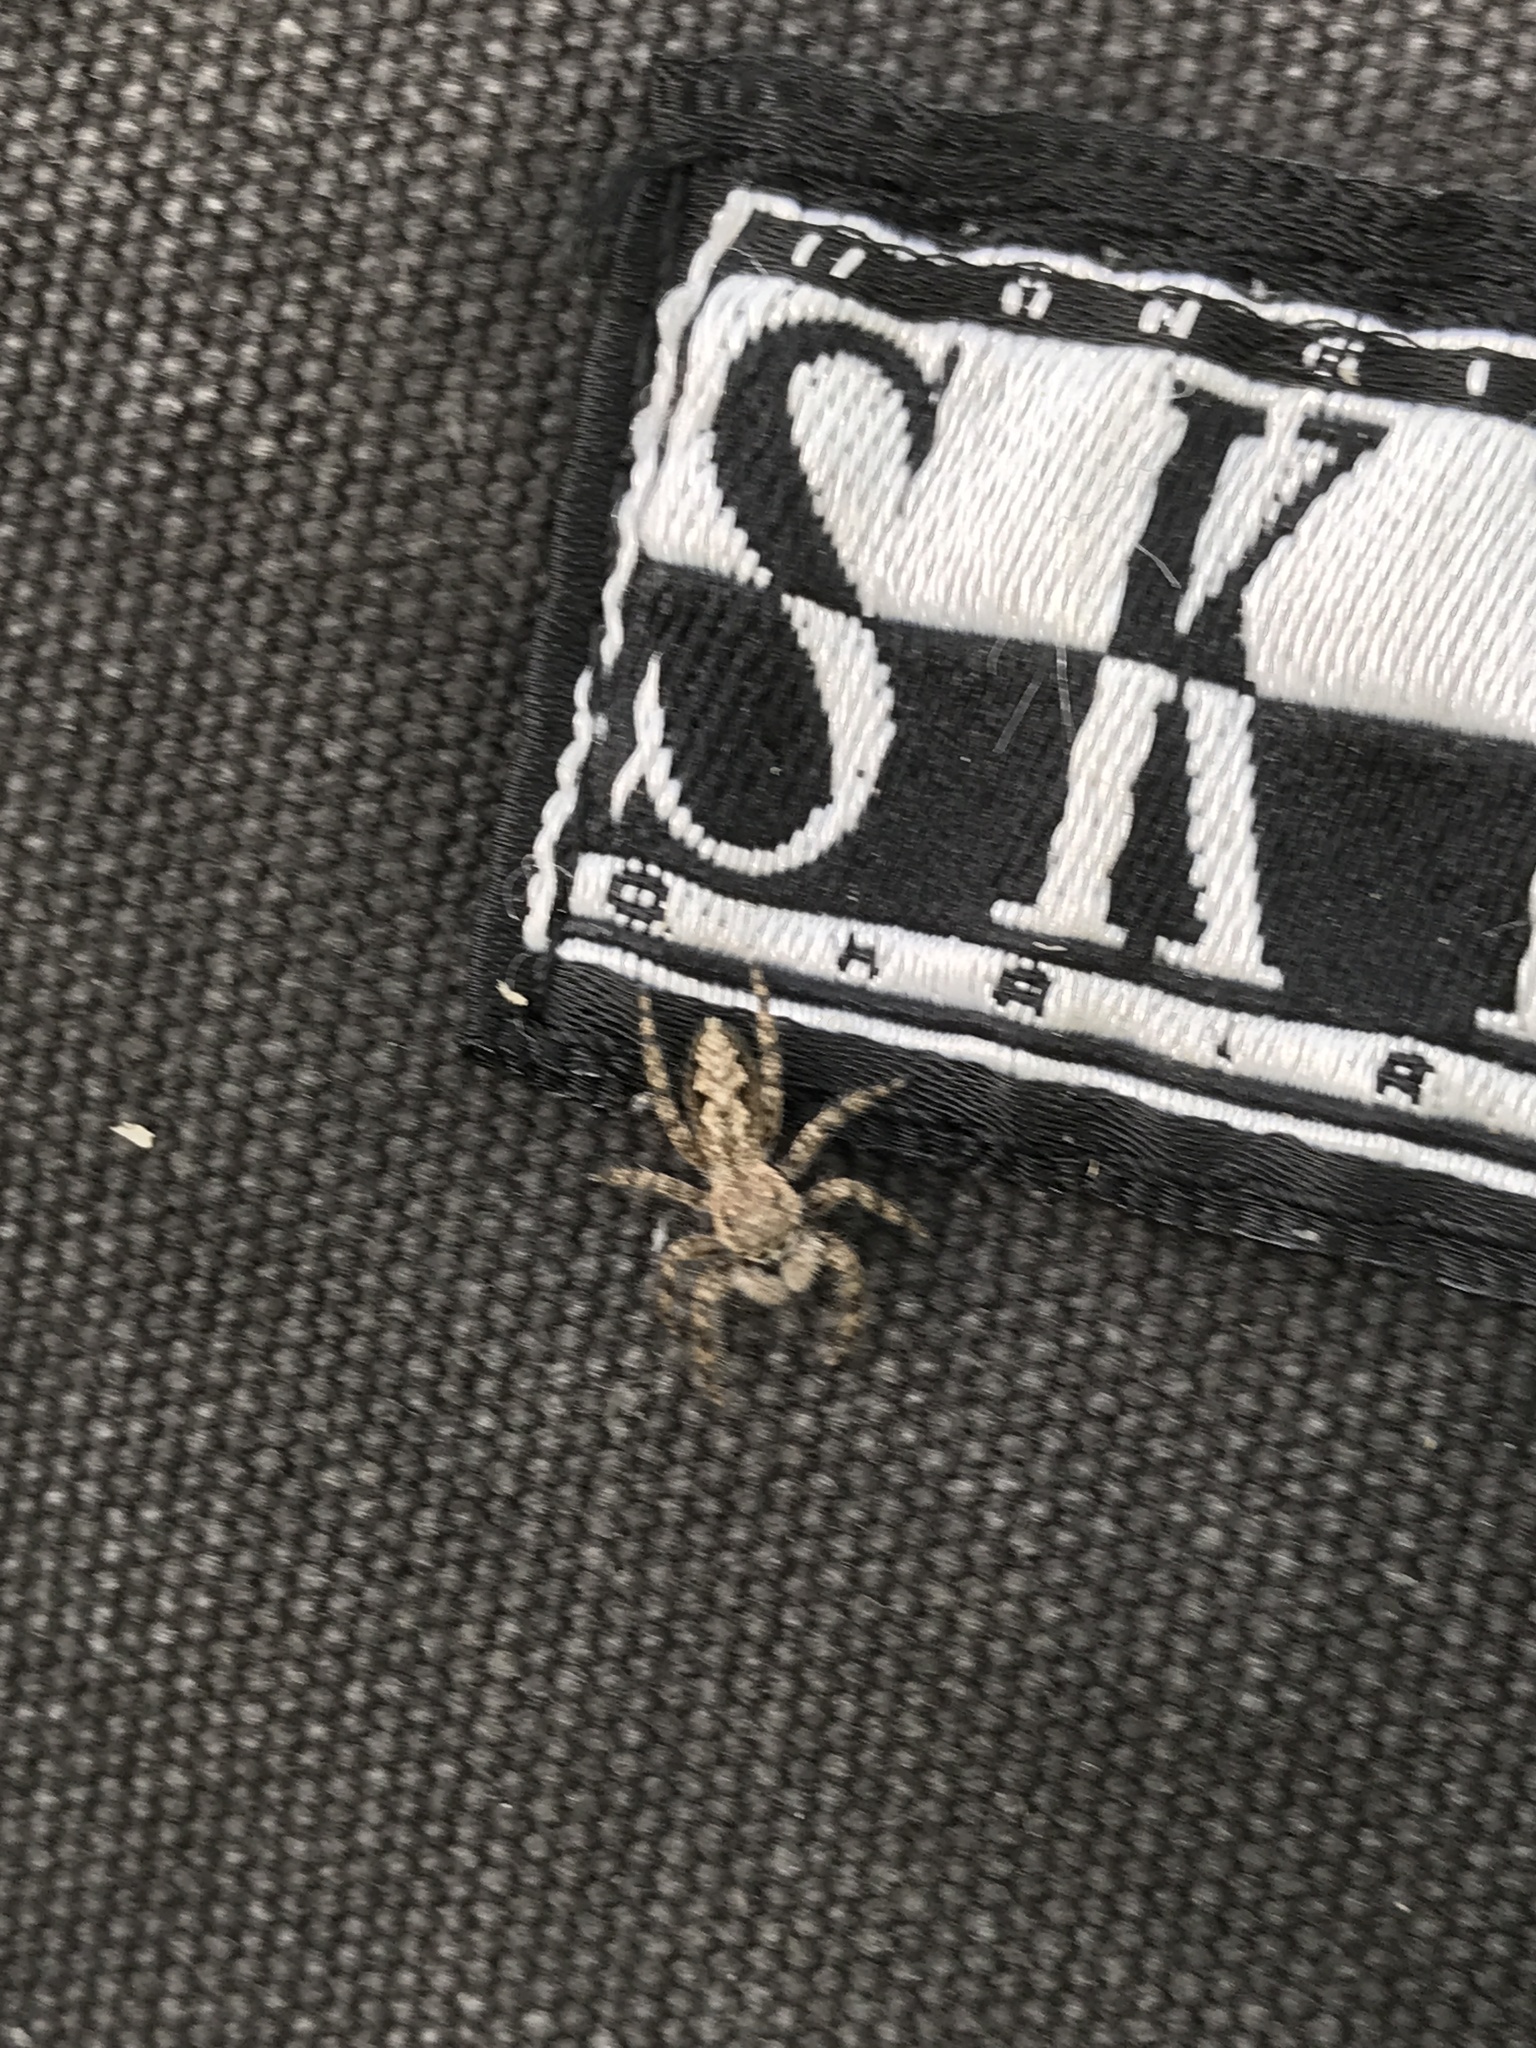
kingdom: Animalia
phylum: Arthropoda
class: Arachnida
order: Araneae
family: Salticidae
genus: Platycryptus
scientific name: Platycryptus undatus
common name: Tan jumping spider
